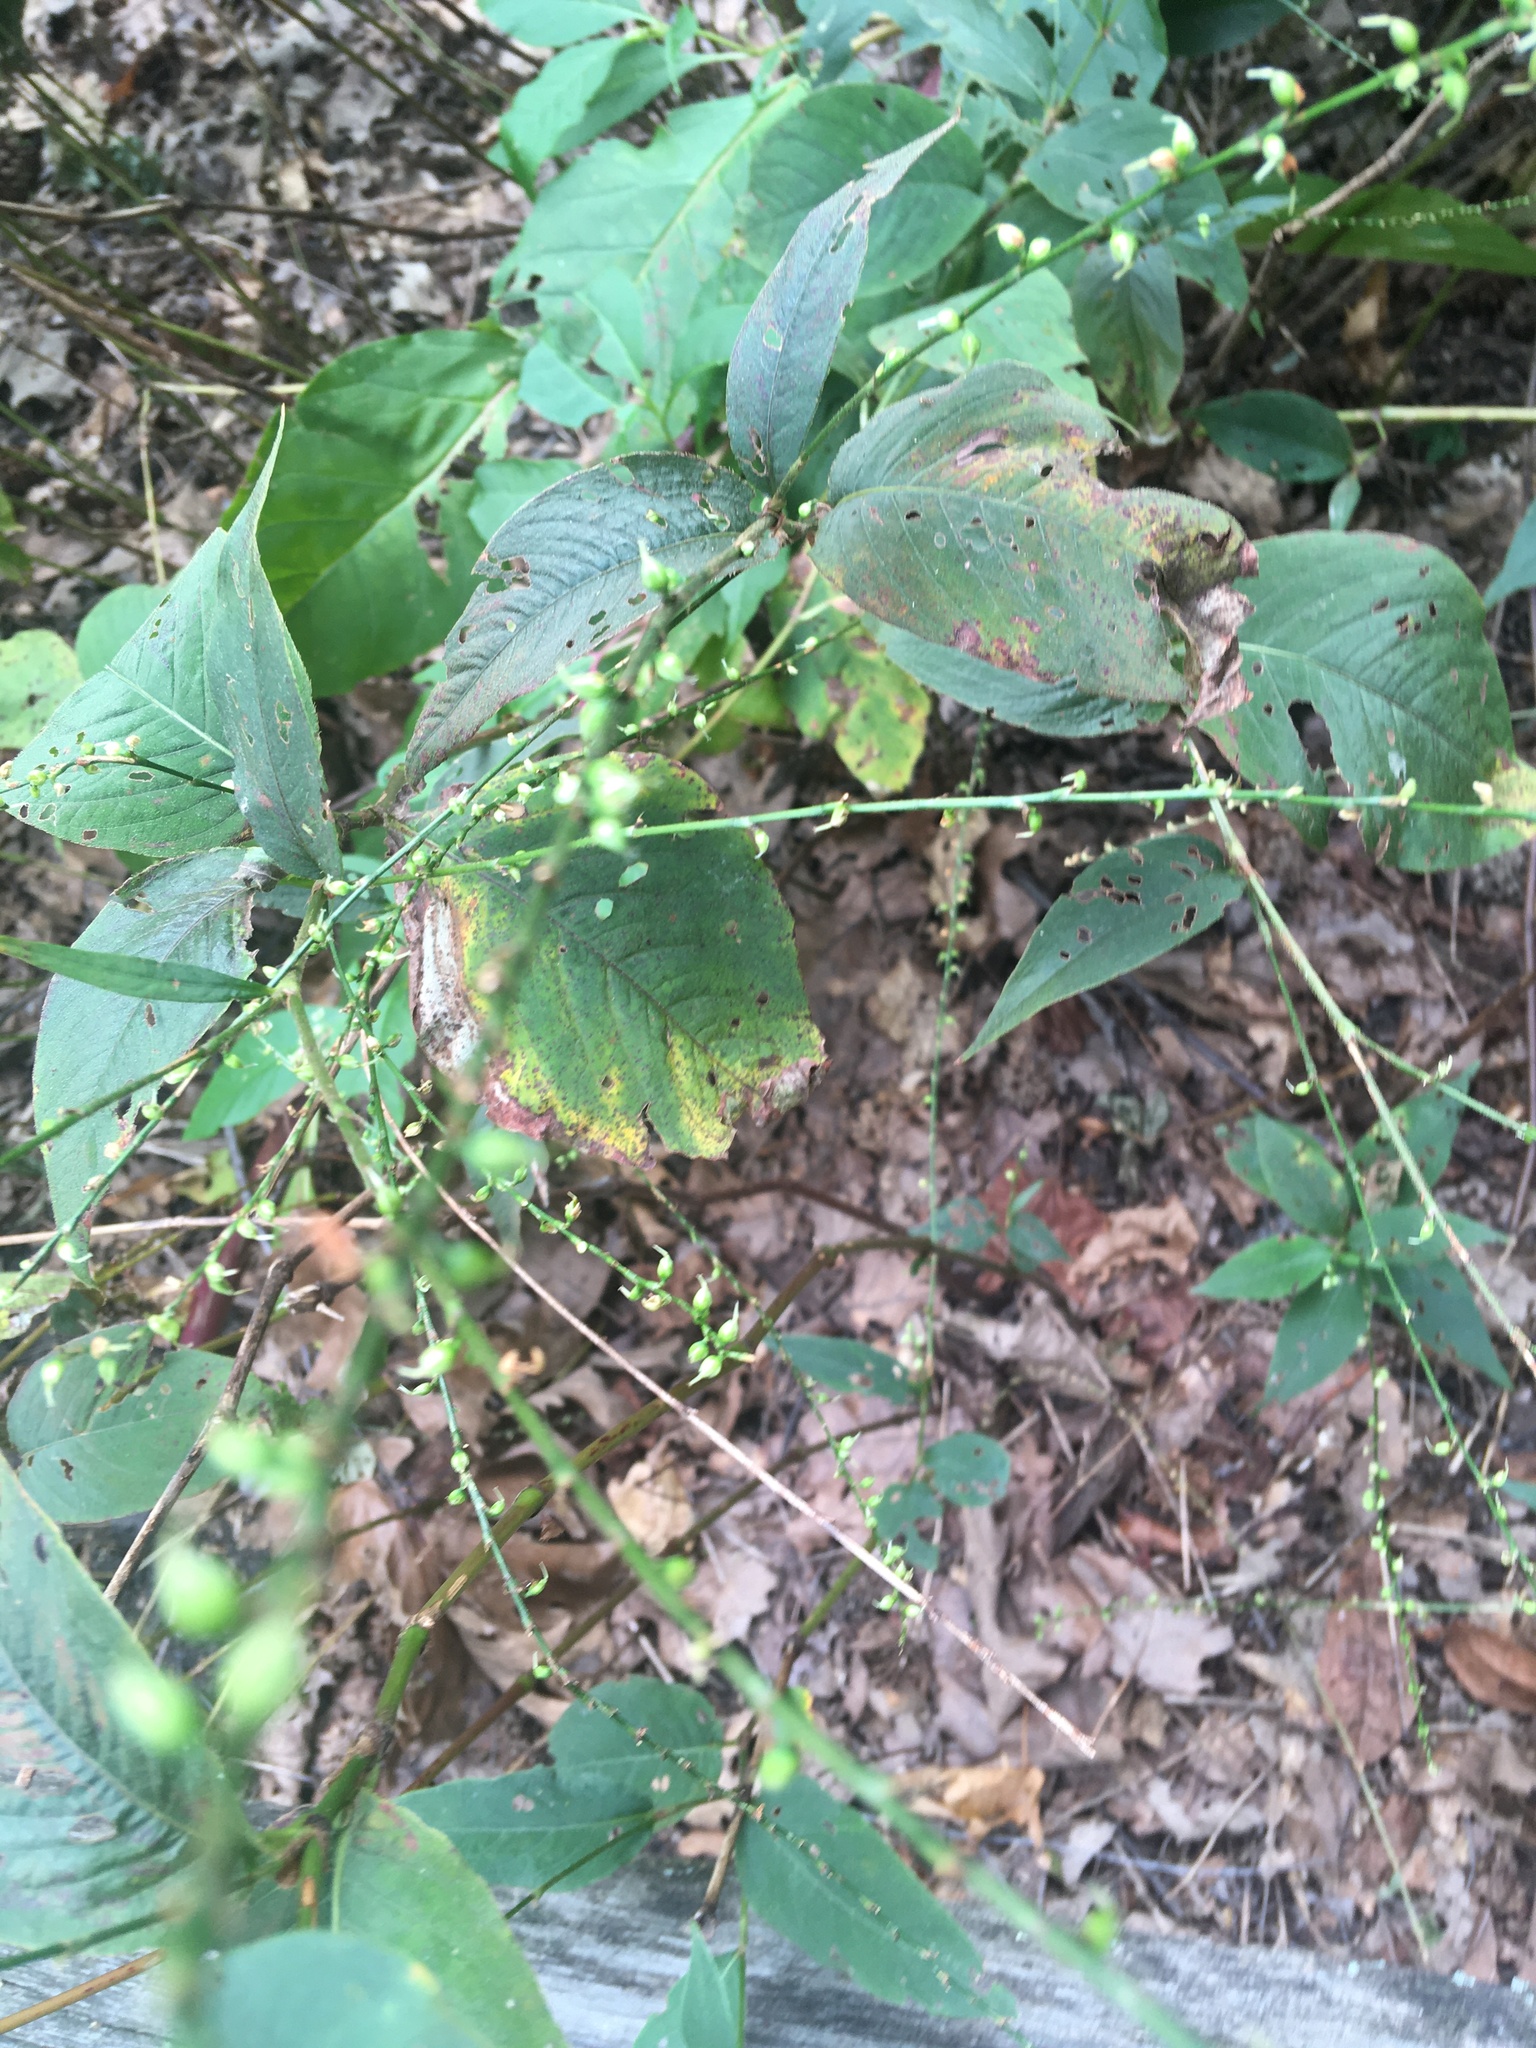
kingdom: Plantae
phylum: Tracheophyta
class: Magnoliopsida
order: Caryophyllales
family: Polygonaceae
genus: Persicaria
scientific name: Persicaria virginiana
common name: Jumpseed
